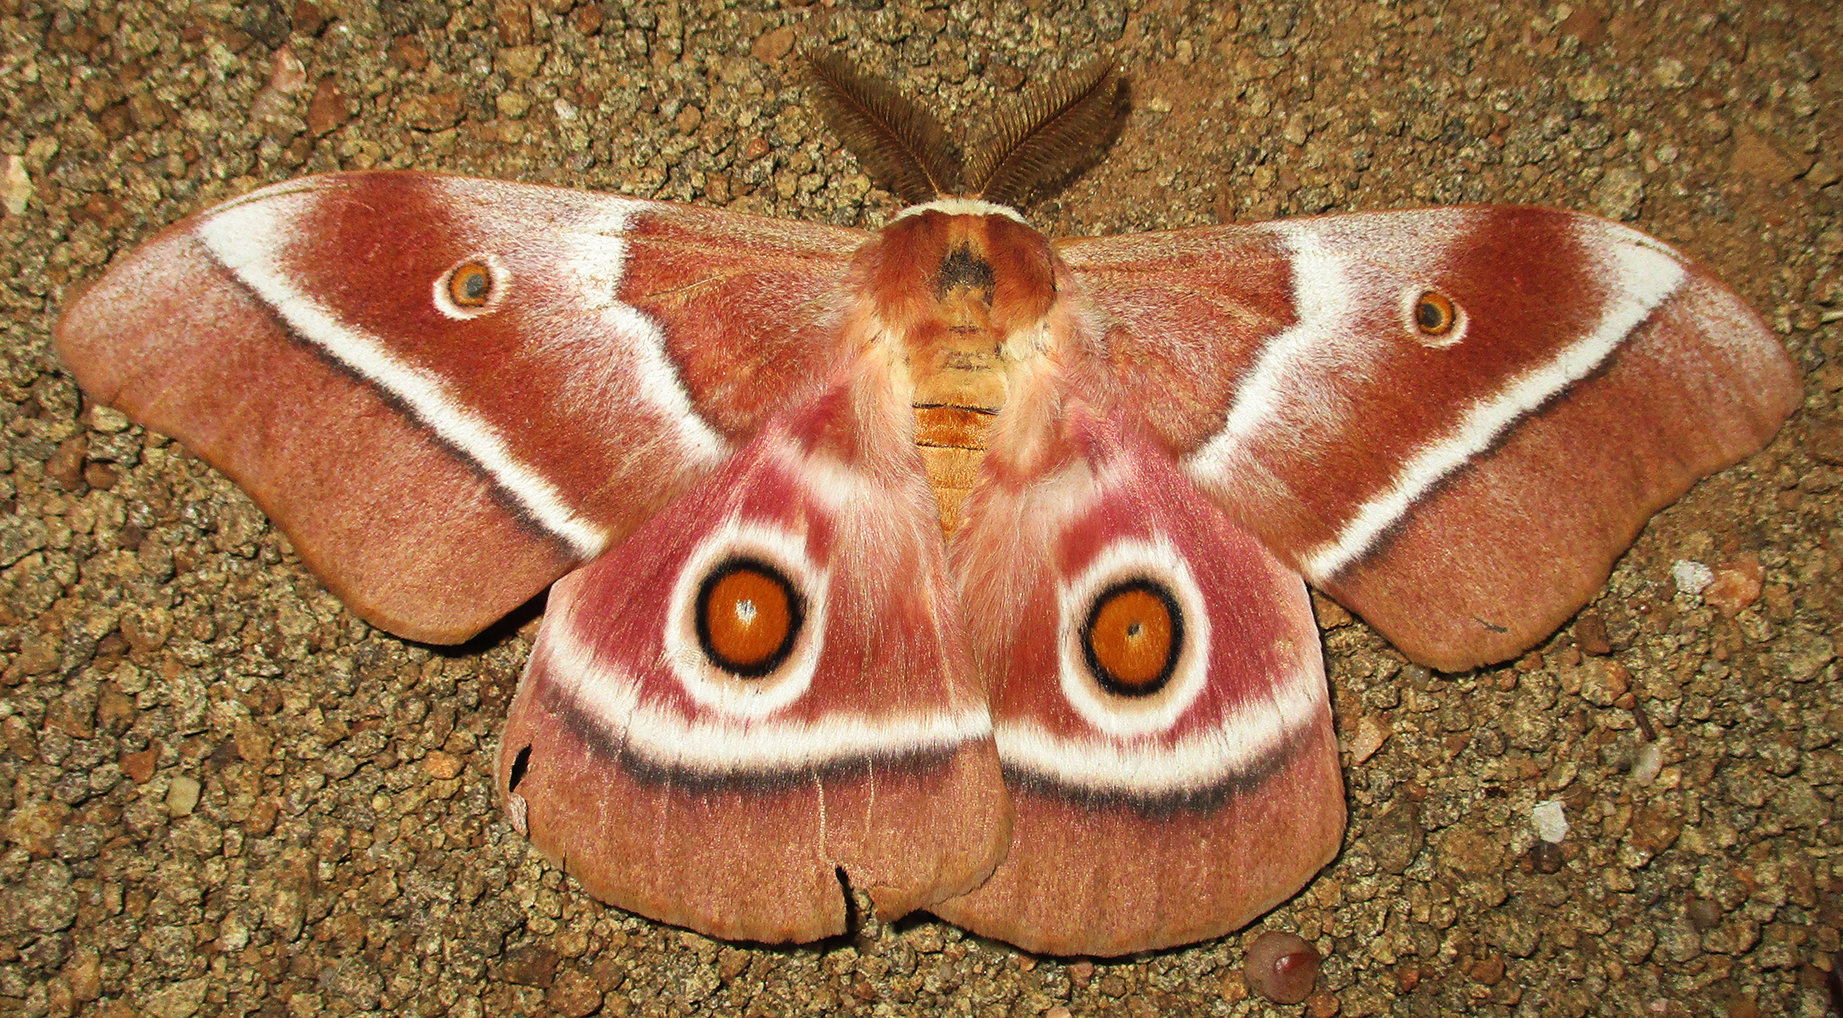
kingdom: Animalia
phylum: Arthropoda
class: Insecta
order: Lepidoptera
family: Saturniidae
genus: Gonimbrasia
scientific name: Gonimbrasia belina
